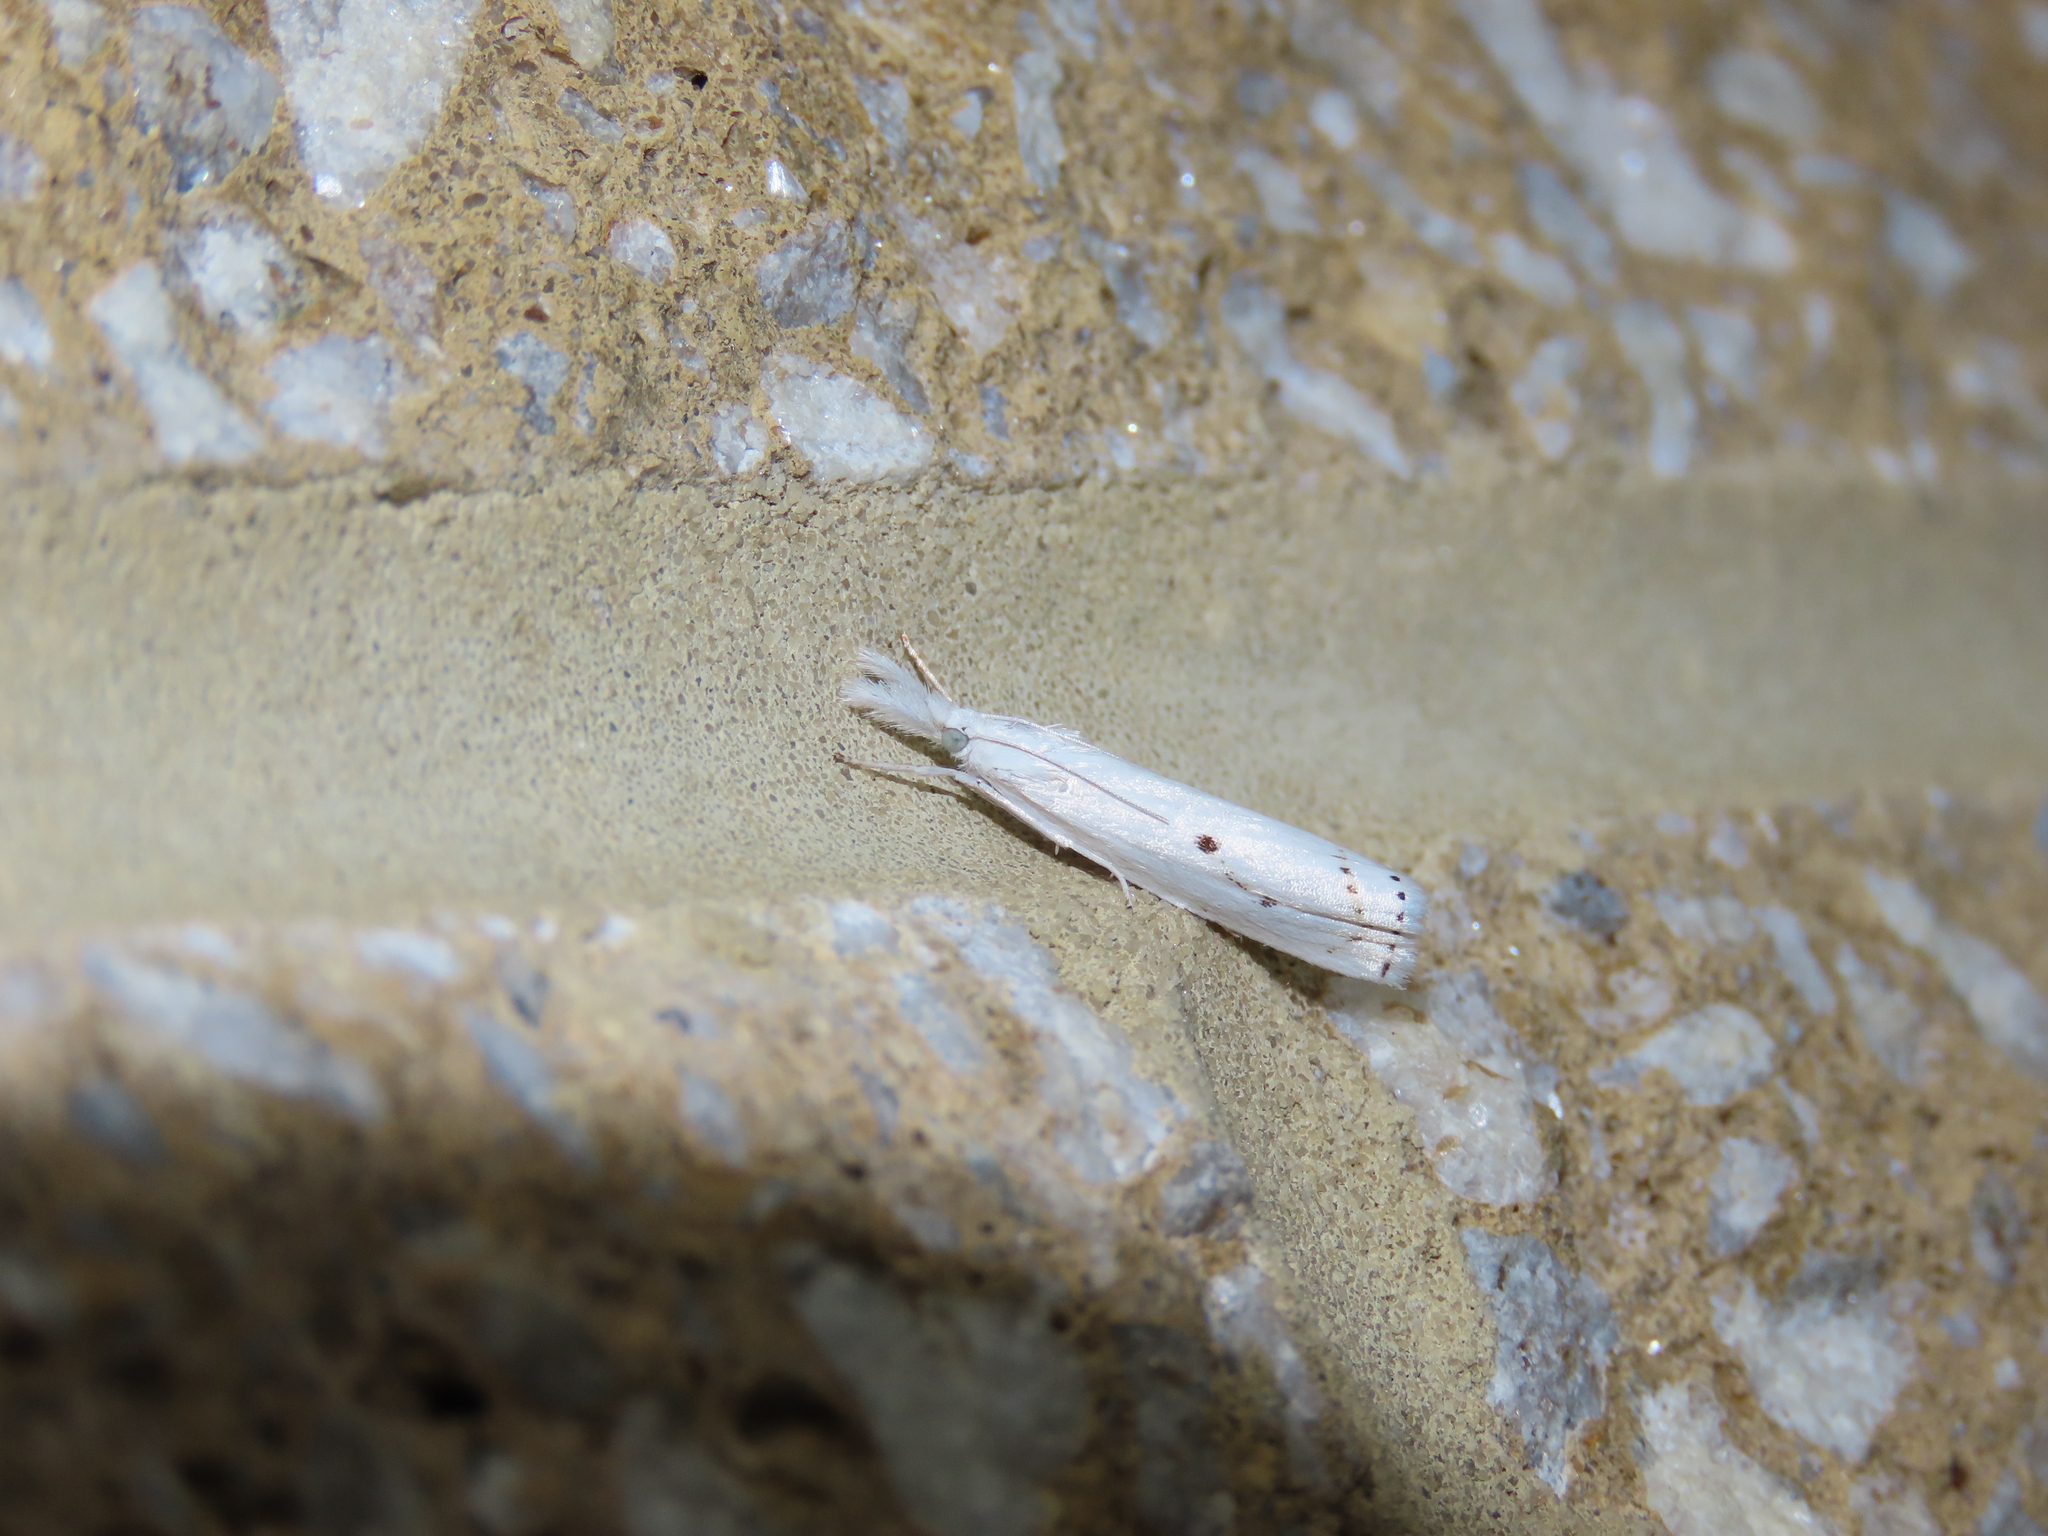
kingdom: Animalia
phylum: Arthropoda
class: Insecta
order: Lepidoptera
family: Crambidae
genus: Microcrambus
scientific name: Microcrambus biguttellus
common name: Gold-stripe grass-veneer moth
